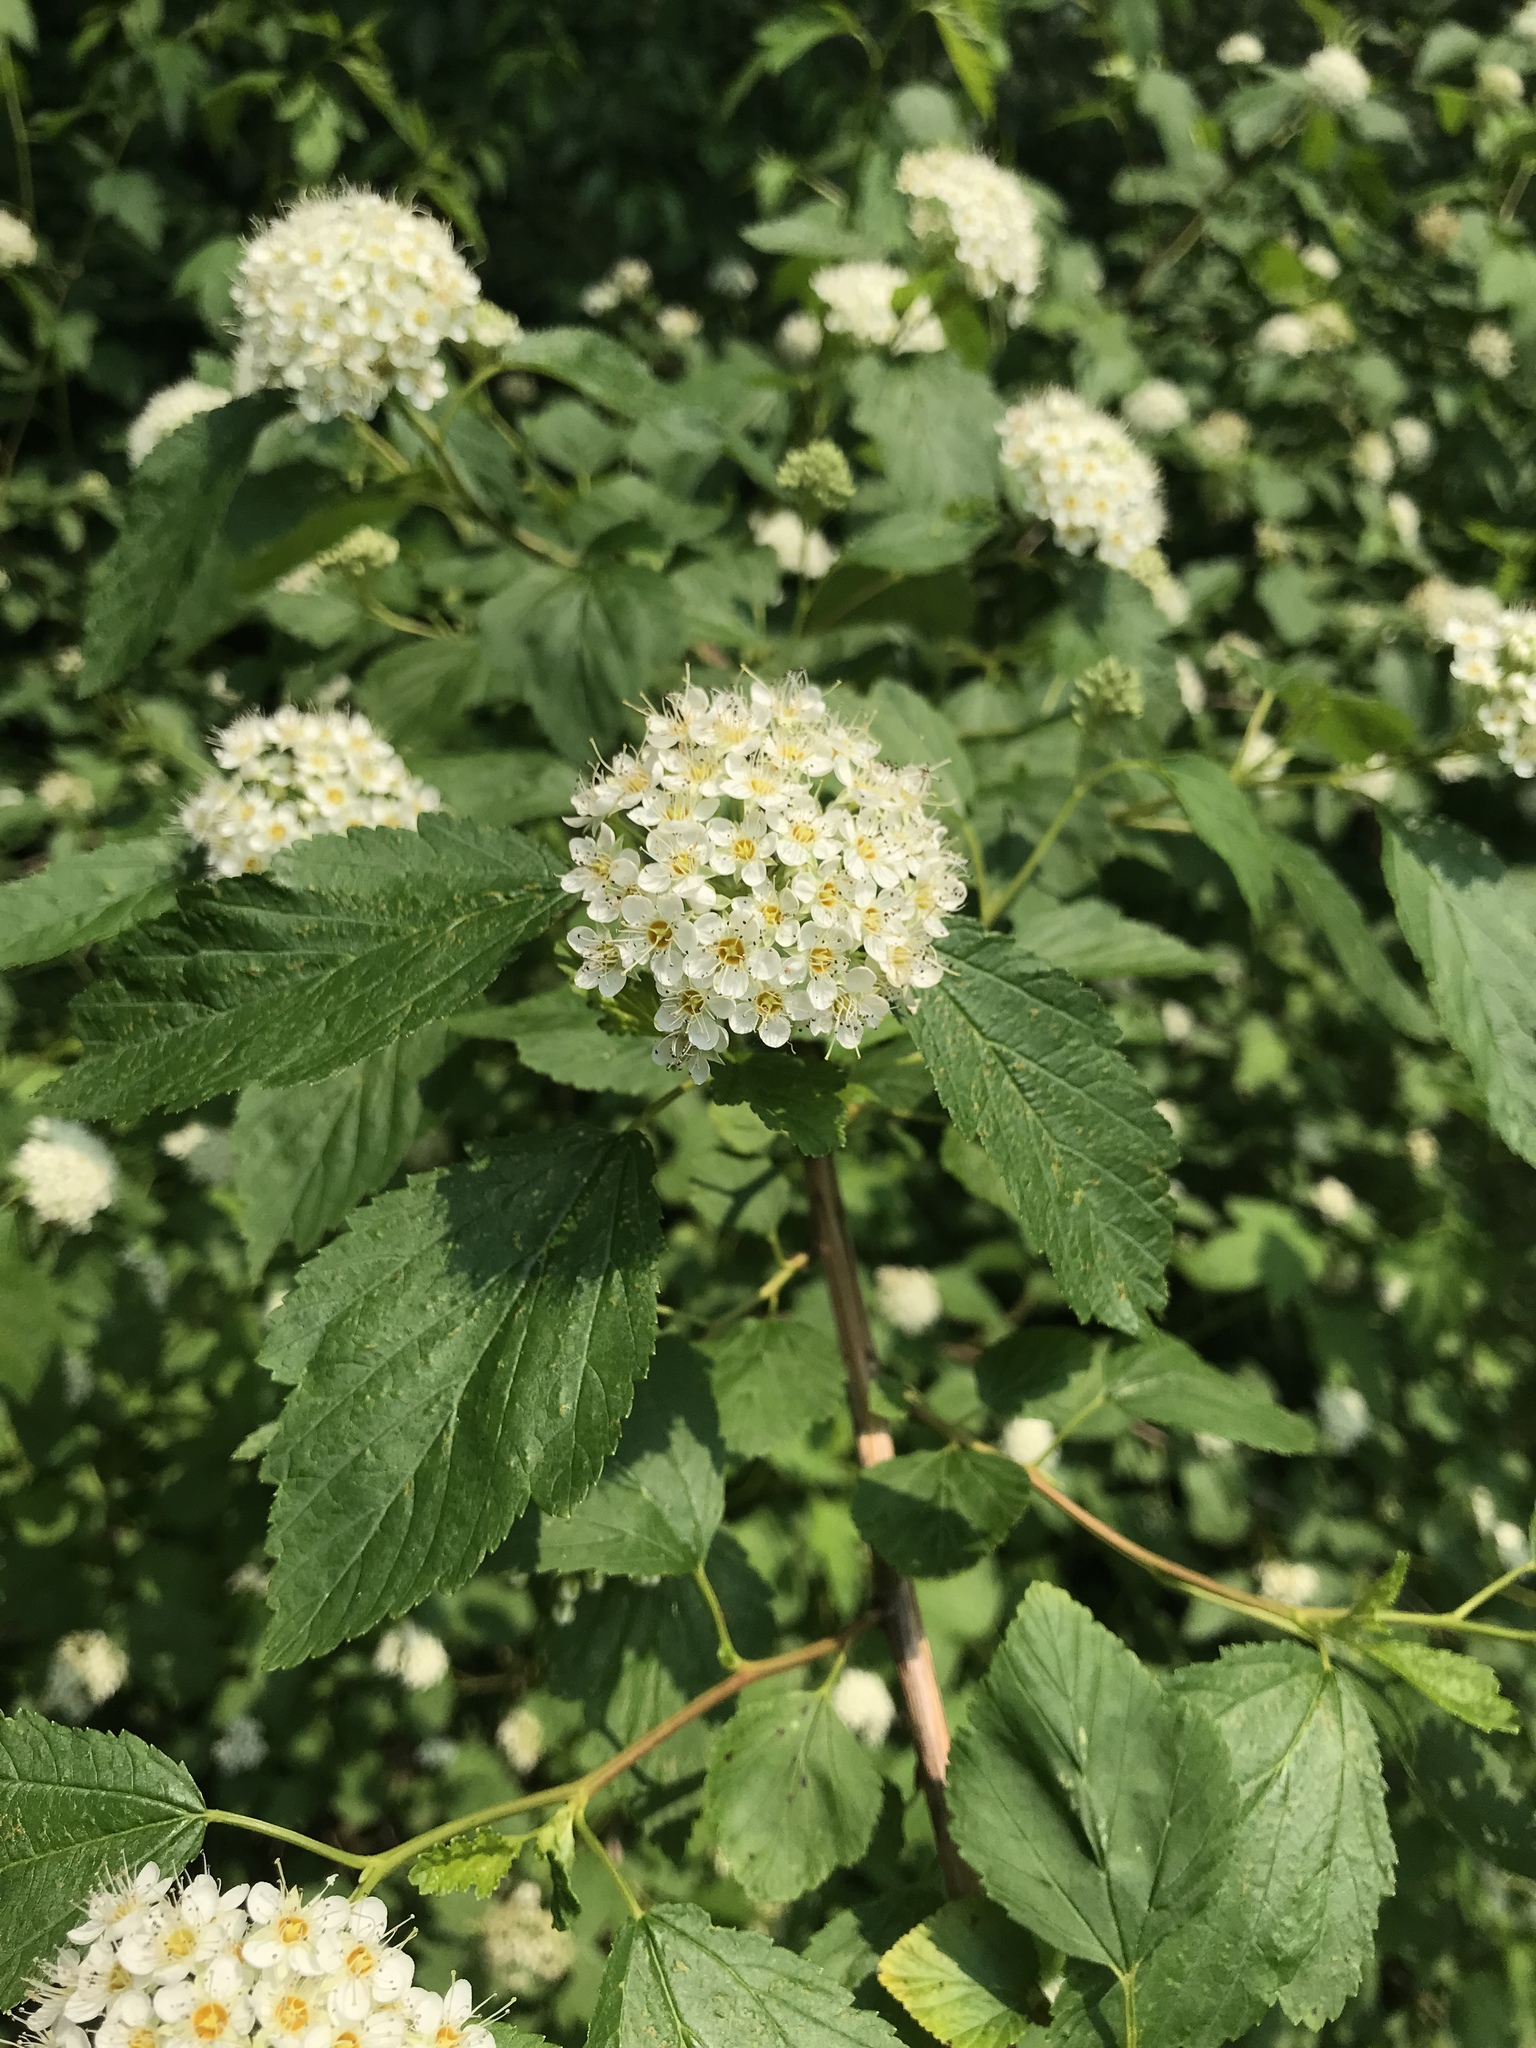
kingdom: Plantae
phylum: Tracheophyta
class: Magnoliopsida
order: Rosales
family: Rosaceae
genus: Physocarpus
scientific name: Physocarpus opulifolius
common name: Ninebark
